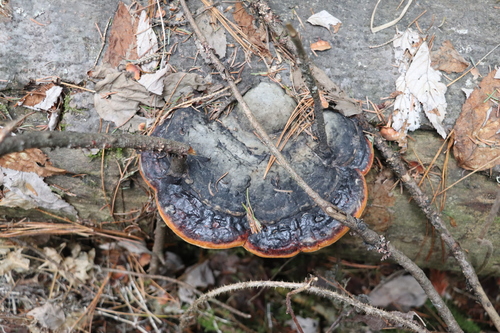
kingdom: Fungi
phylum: Basidiomycota
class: Agaricomycetes
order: Polyporales
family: Fomitopsidaceae
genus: Fomitopsis
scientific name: Fomitopsis pinicola
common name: Red-belted bracket
